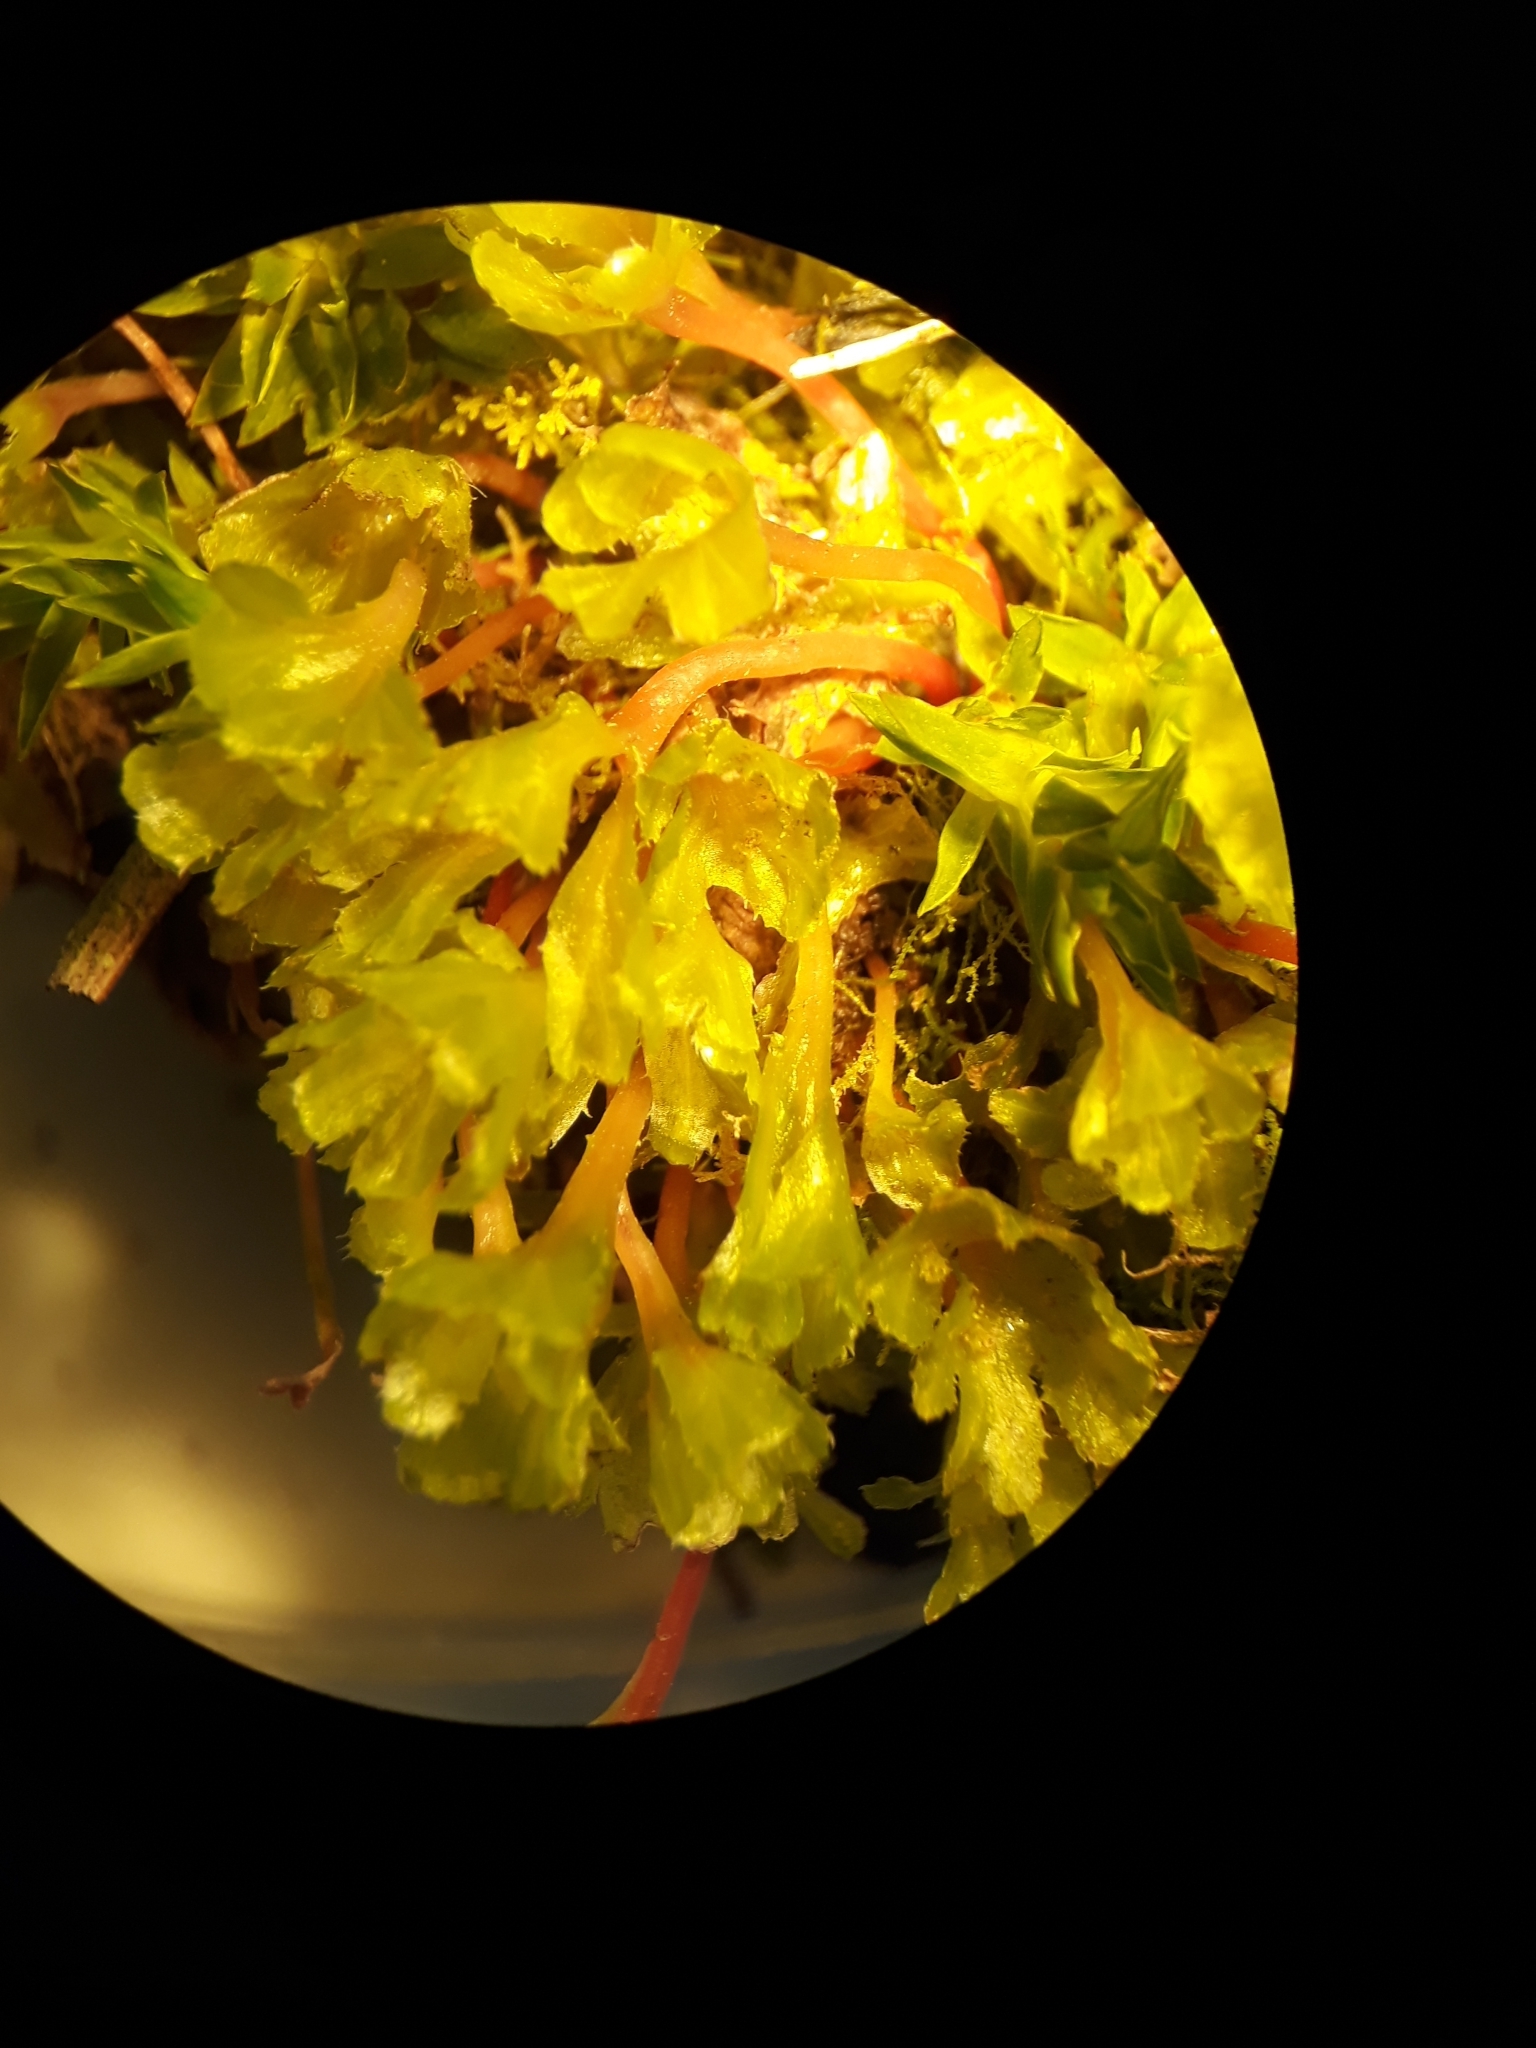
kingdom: Plantae
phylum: Marchantiophyta
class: Jungermanniopsida
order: Pallaviciniales
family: Pallaviciniaceae
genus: Jensenia
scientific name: Jensenia connivens
